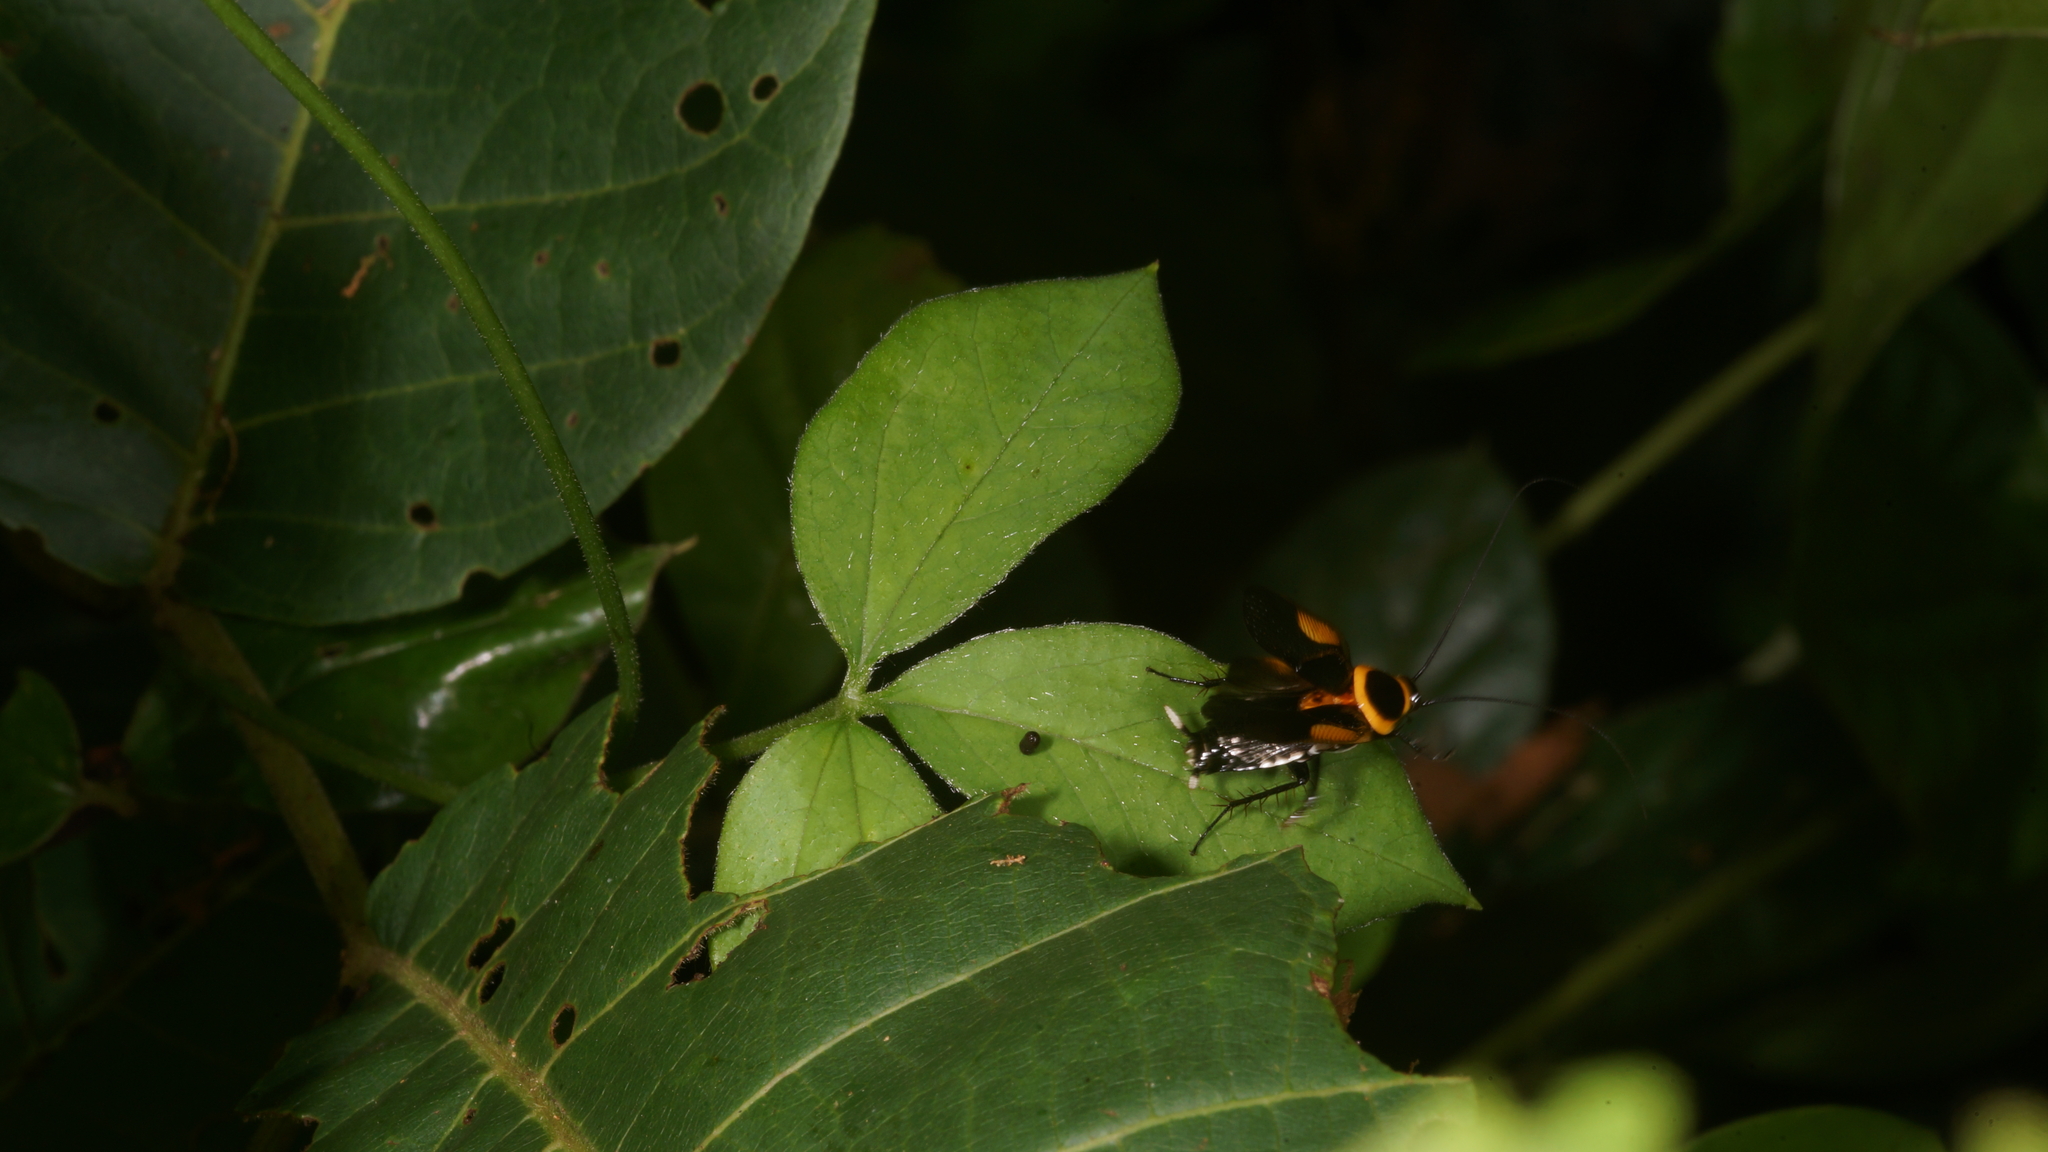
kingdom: Animalia
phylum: Arthropoda
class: Insecta
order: Blattodea
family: Ectobiidae
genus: Hemithyrsocera
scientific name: Hemithyrsocera vittata
